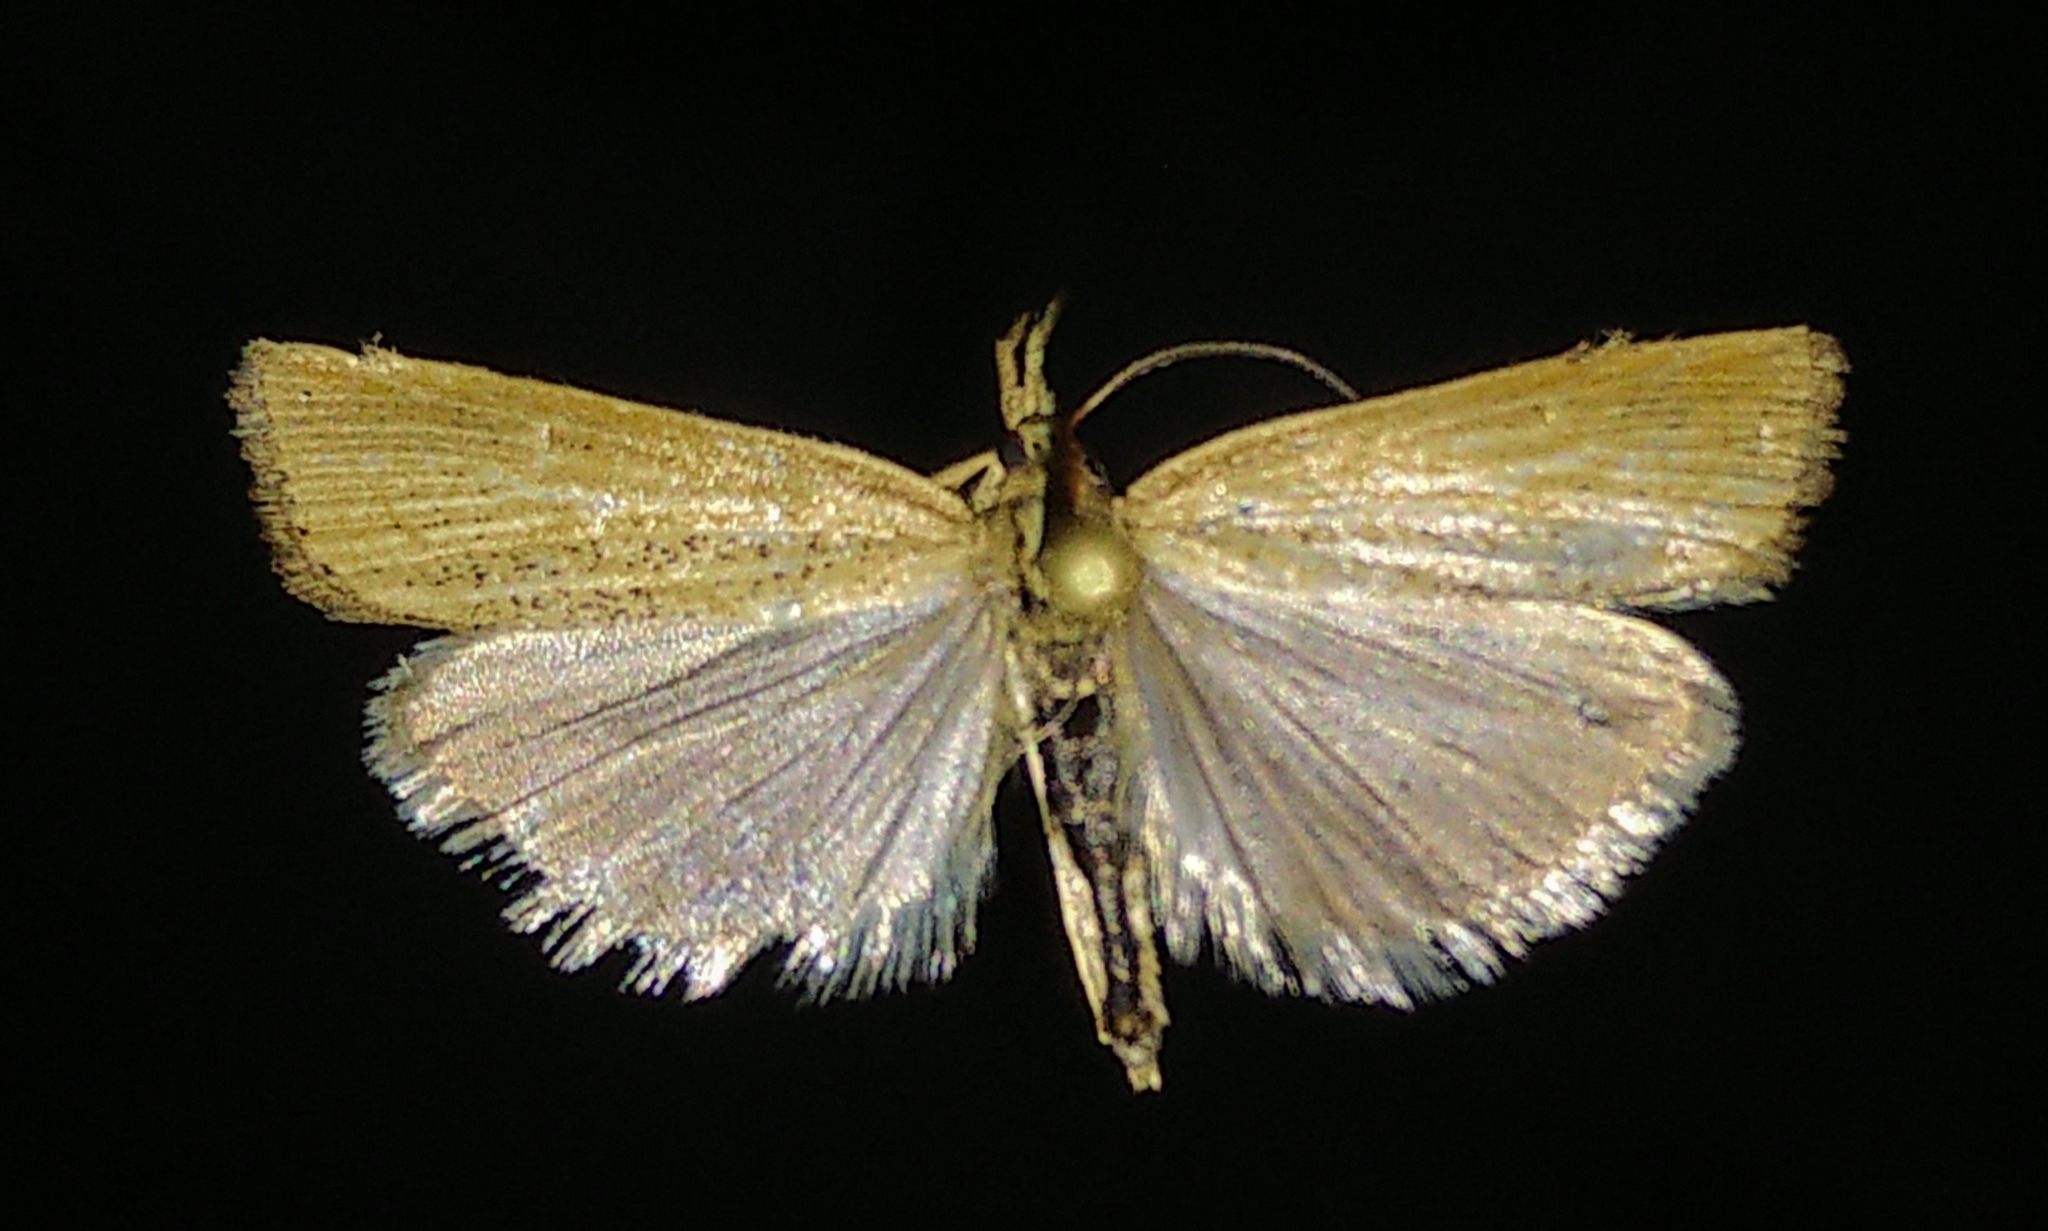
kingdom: Animalia
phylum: Arthropoda
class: Insecta
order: Lepidoptera
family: Crambidae
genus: Pediasia
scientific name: Pediasia dorsipunctellus
